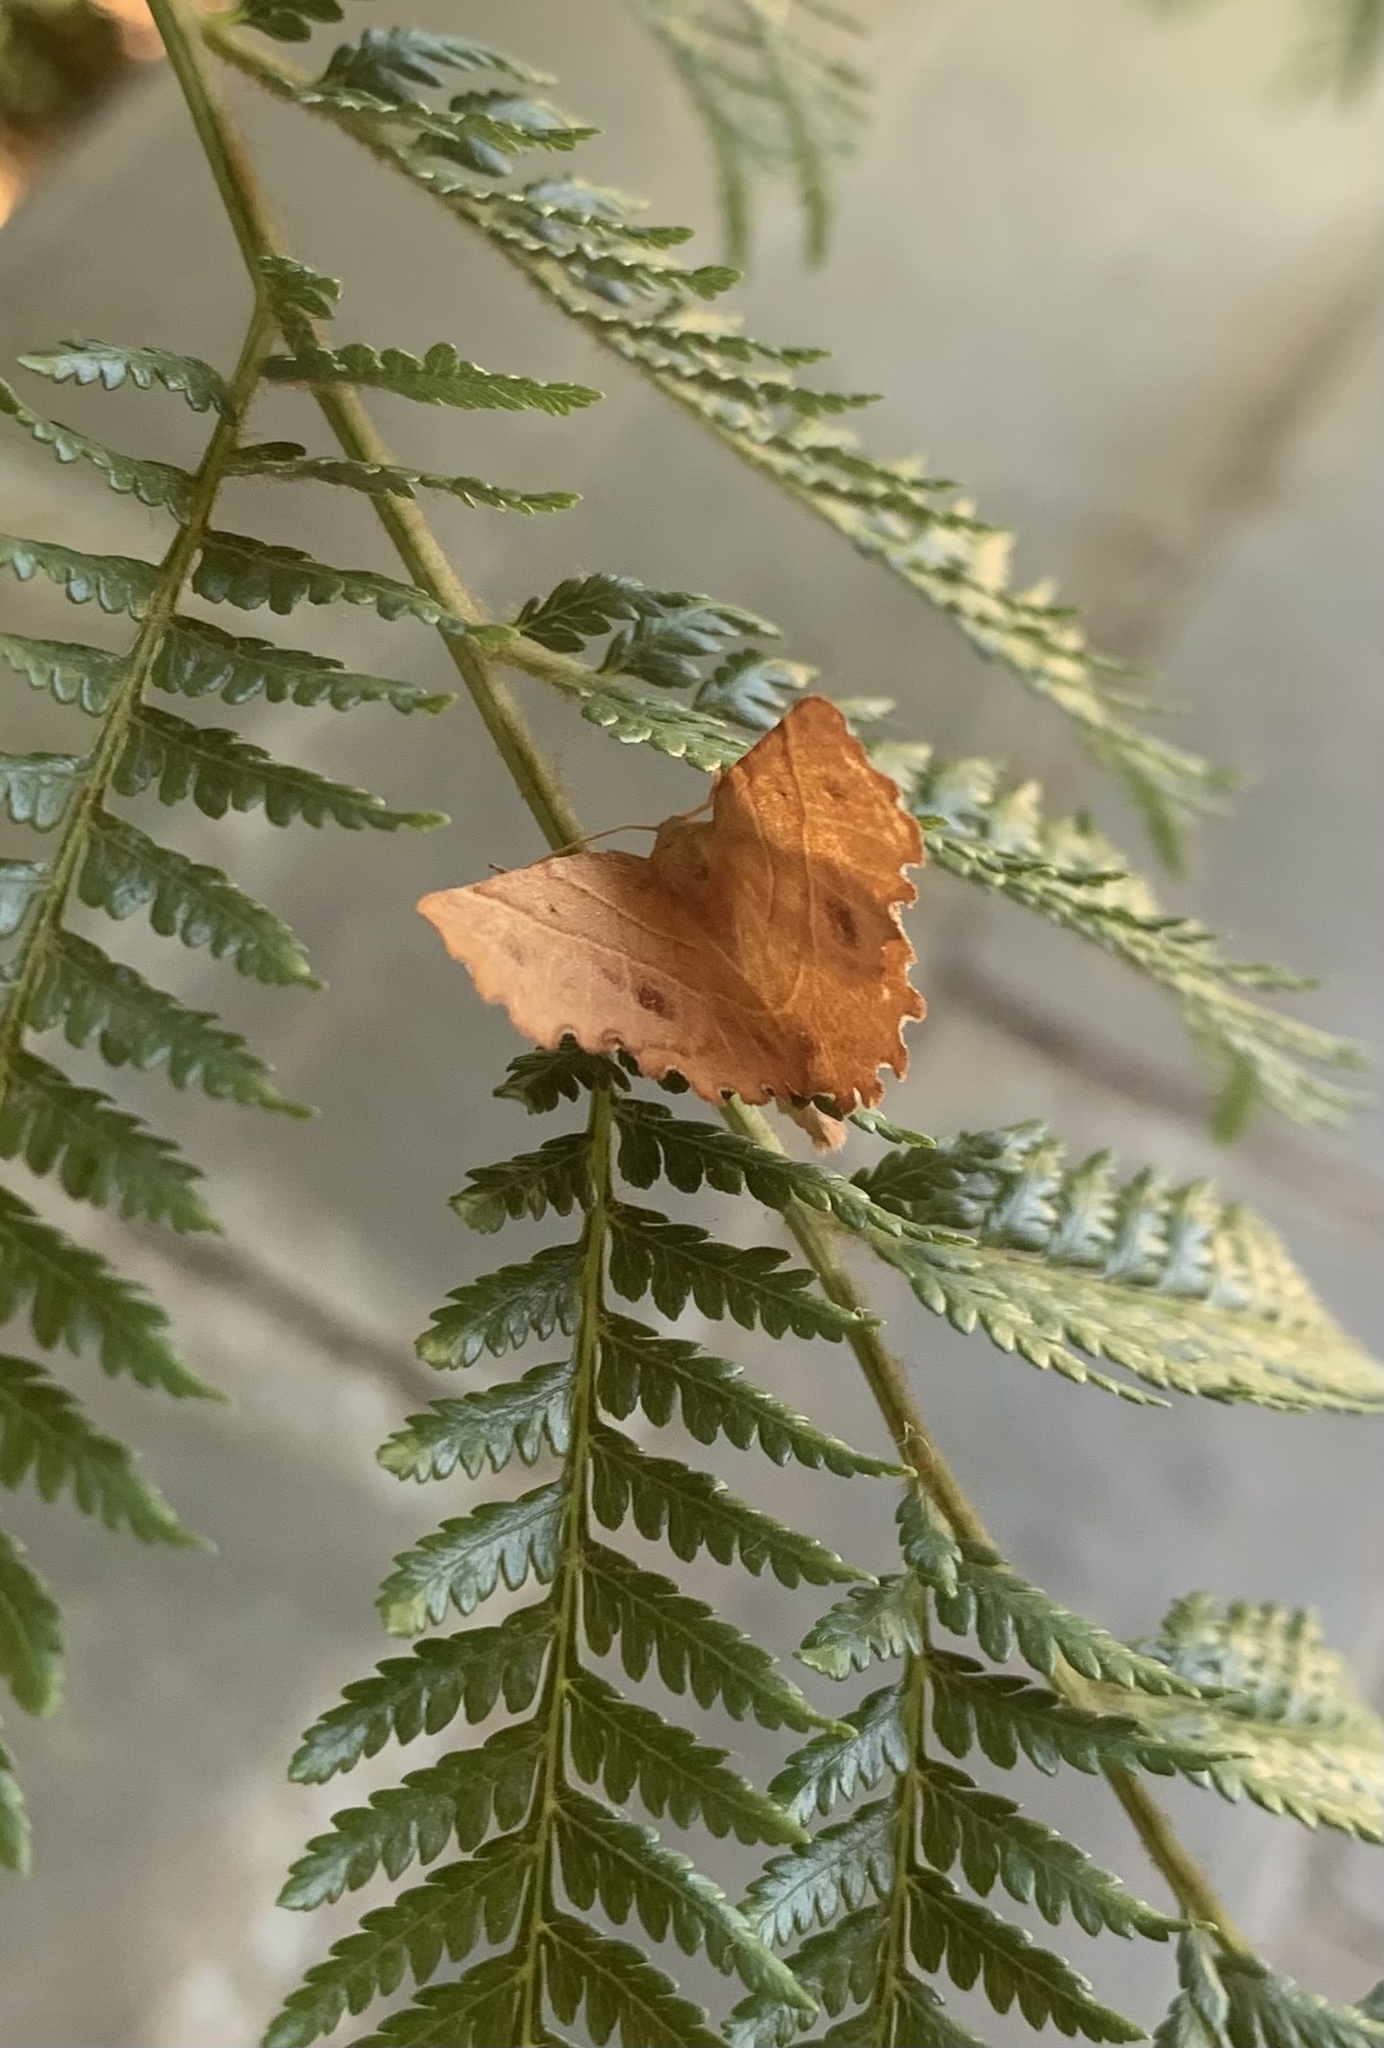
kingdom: Animalia
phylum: Arthropoda
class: Insecta
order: Lepidoptera
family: Geometridae
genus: Microclysia
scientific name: Microclysia pristopera
